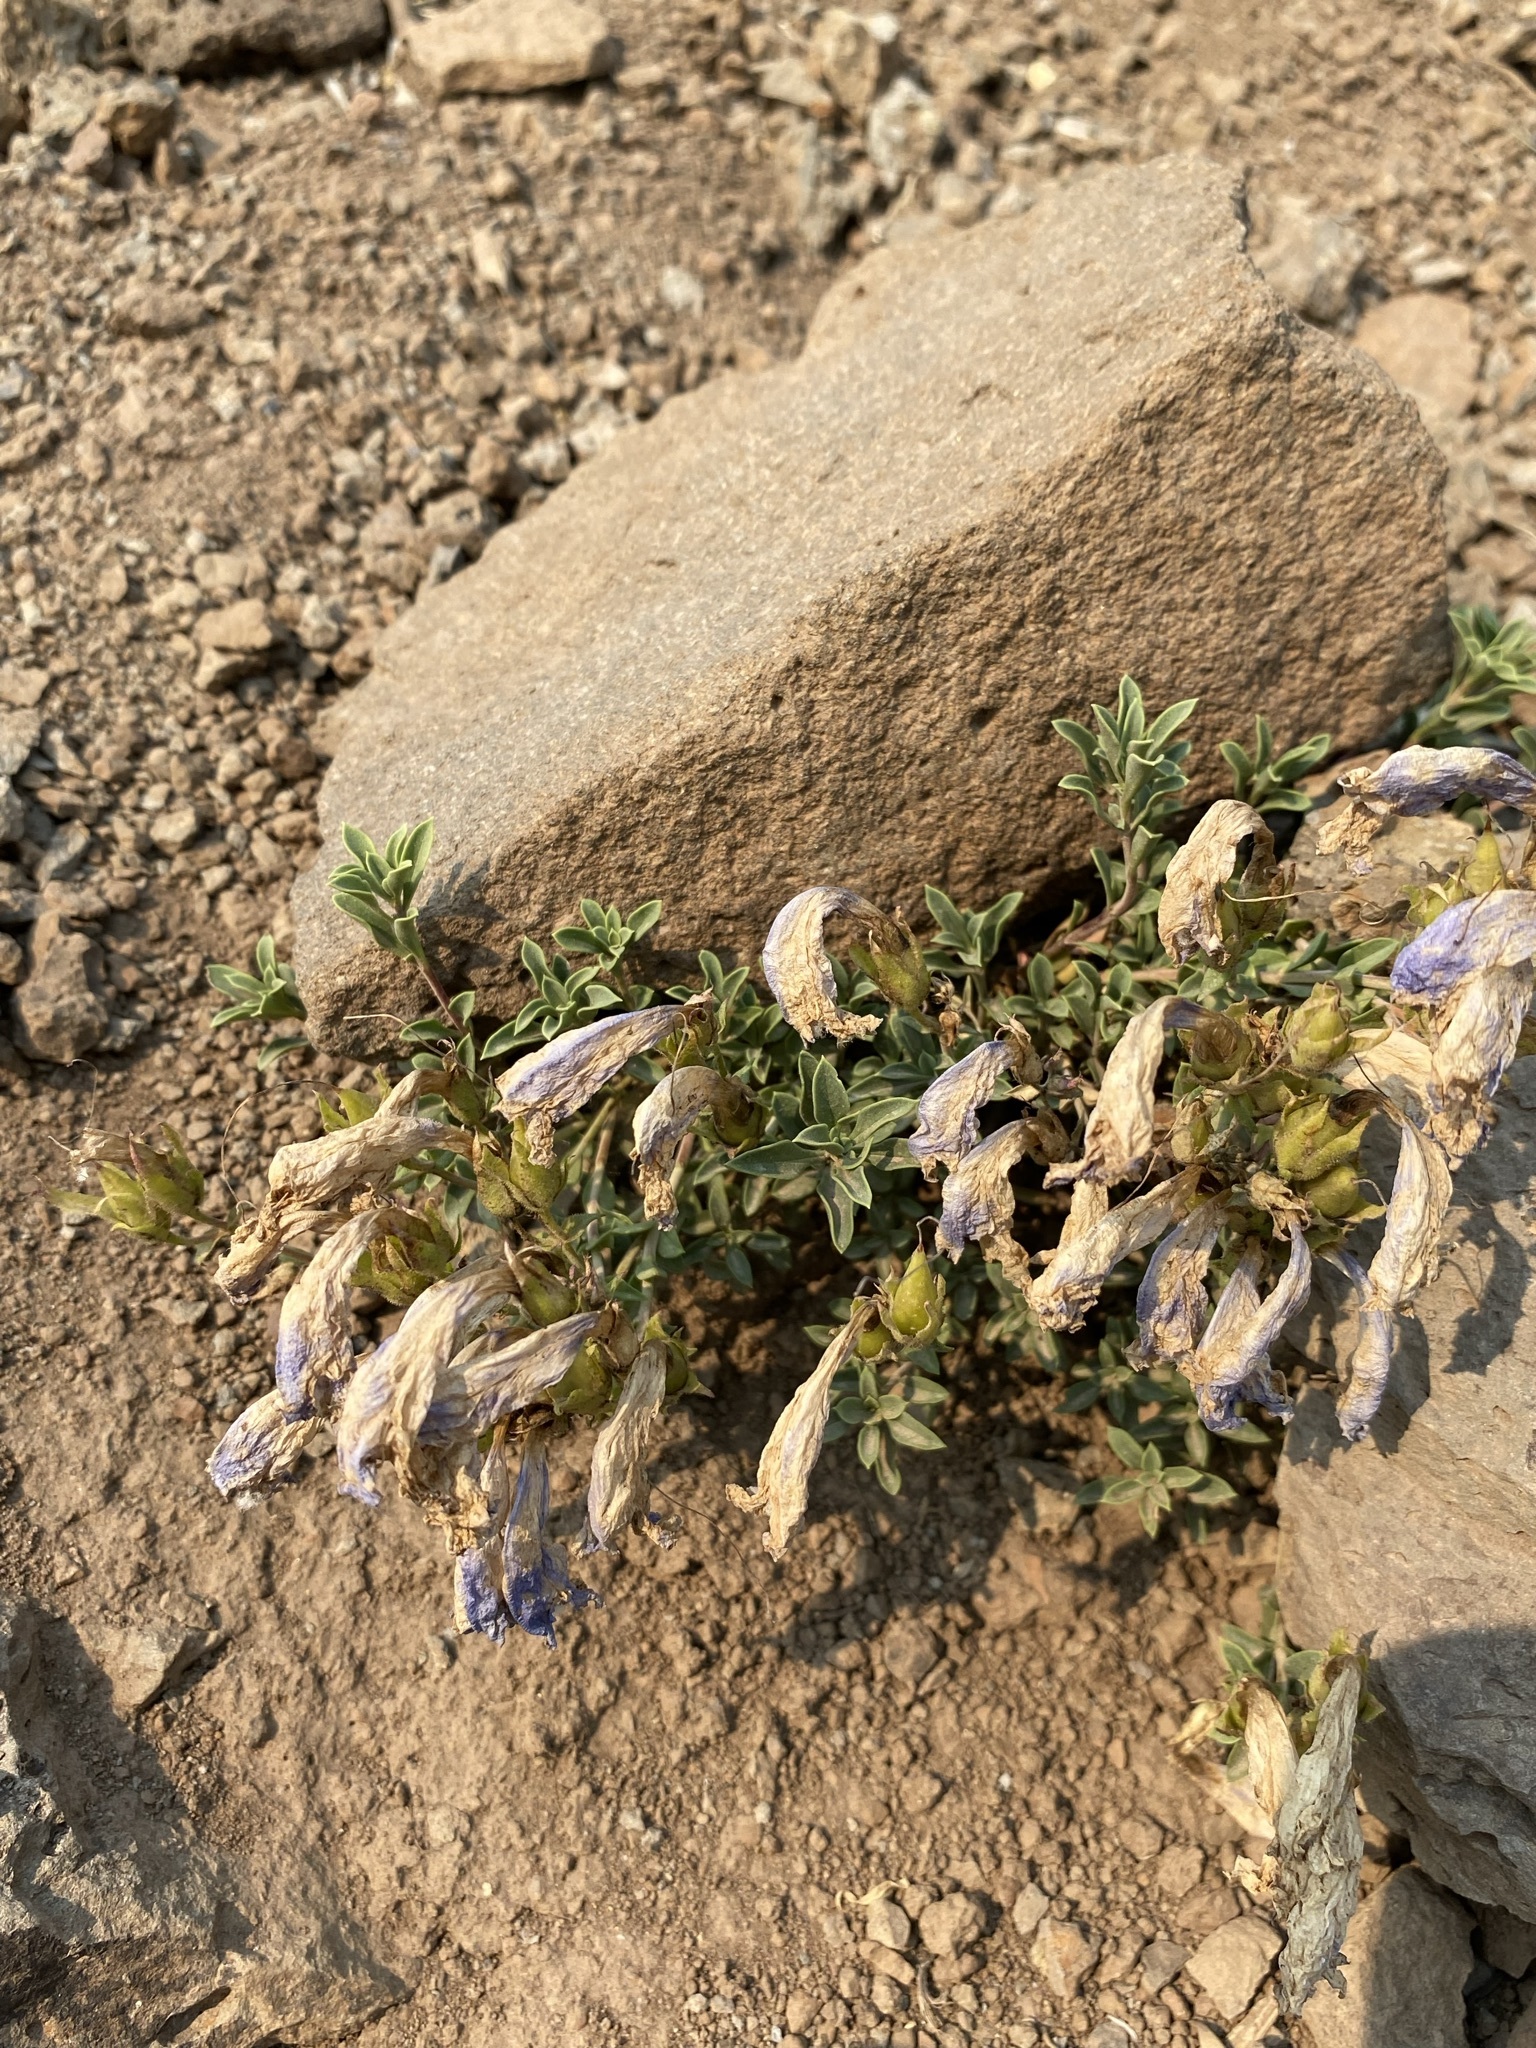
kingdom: Plantae
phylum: Tracheophyta
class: Magnoliopsida
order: Lamiales
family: Plantaginaceae
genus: Penstemon
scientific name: Penstemon davidsonii
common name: Davidson's penstemon
